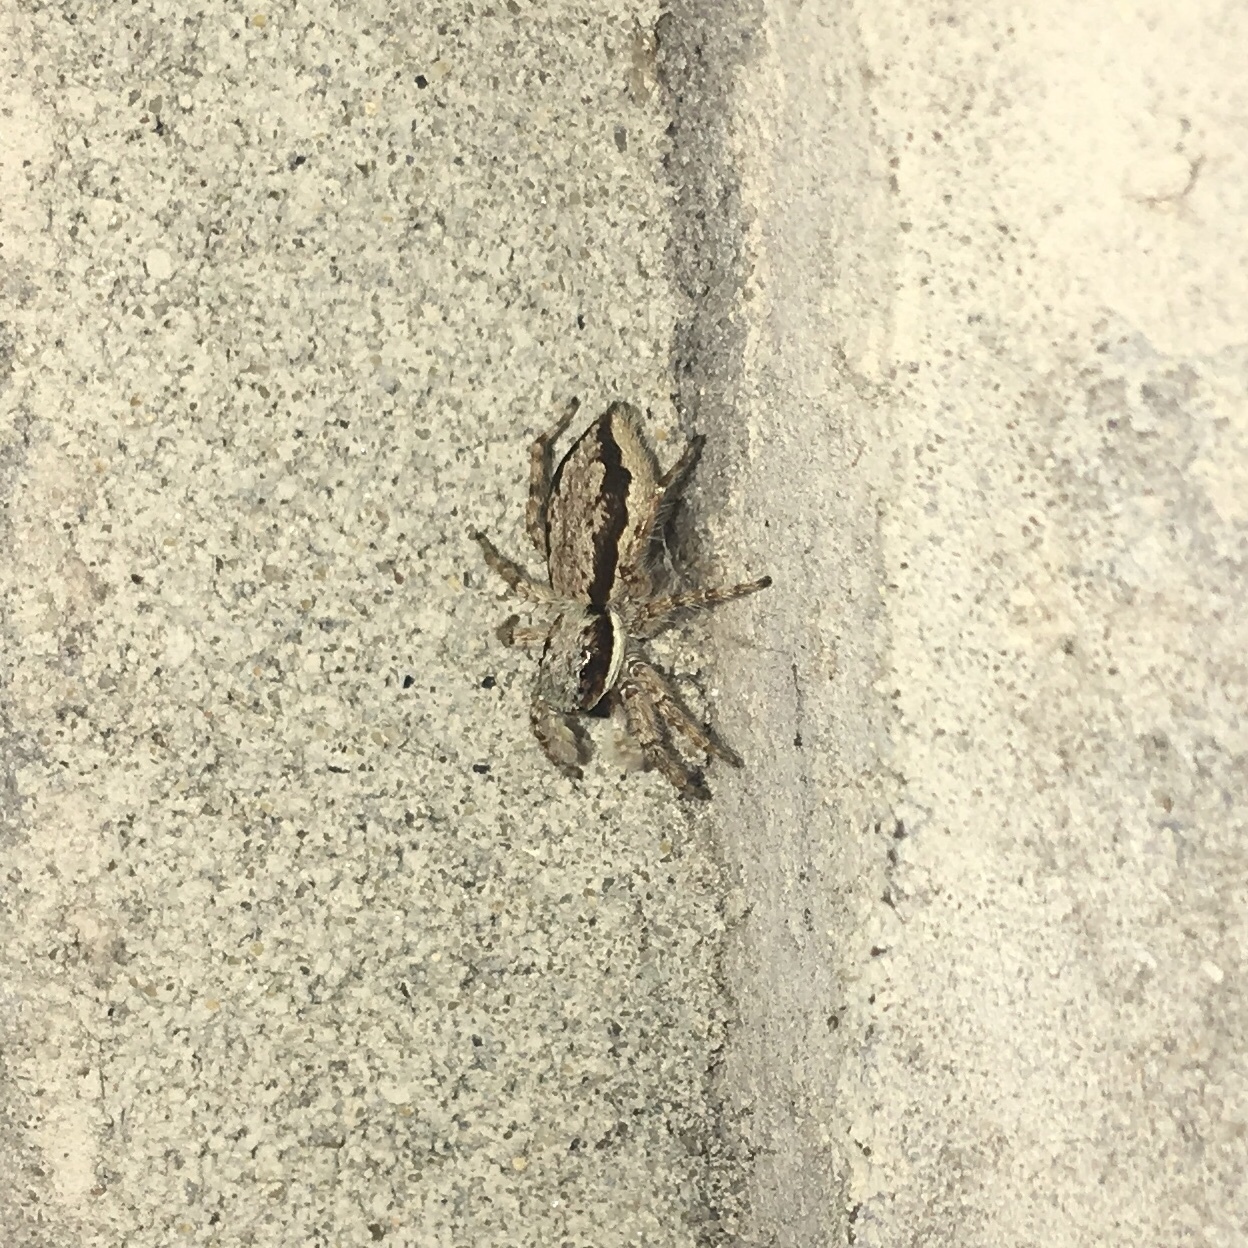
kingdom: Animalia
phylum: Arthropoda
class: Arachnida
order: Araneae
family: Salticidae
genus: Menemerus
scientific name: Menemerus bivittatus
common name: Gray wall jumper
